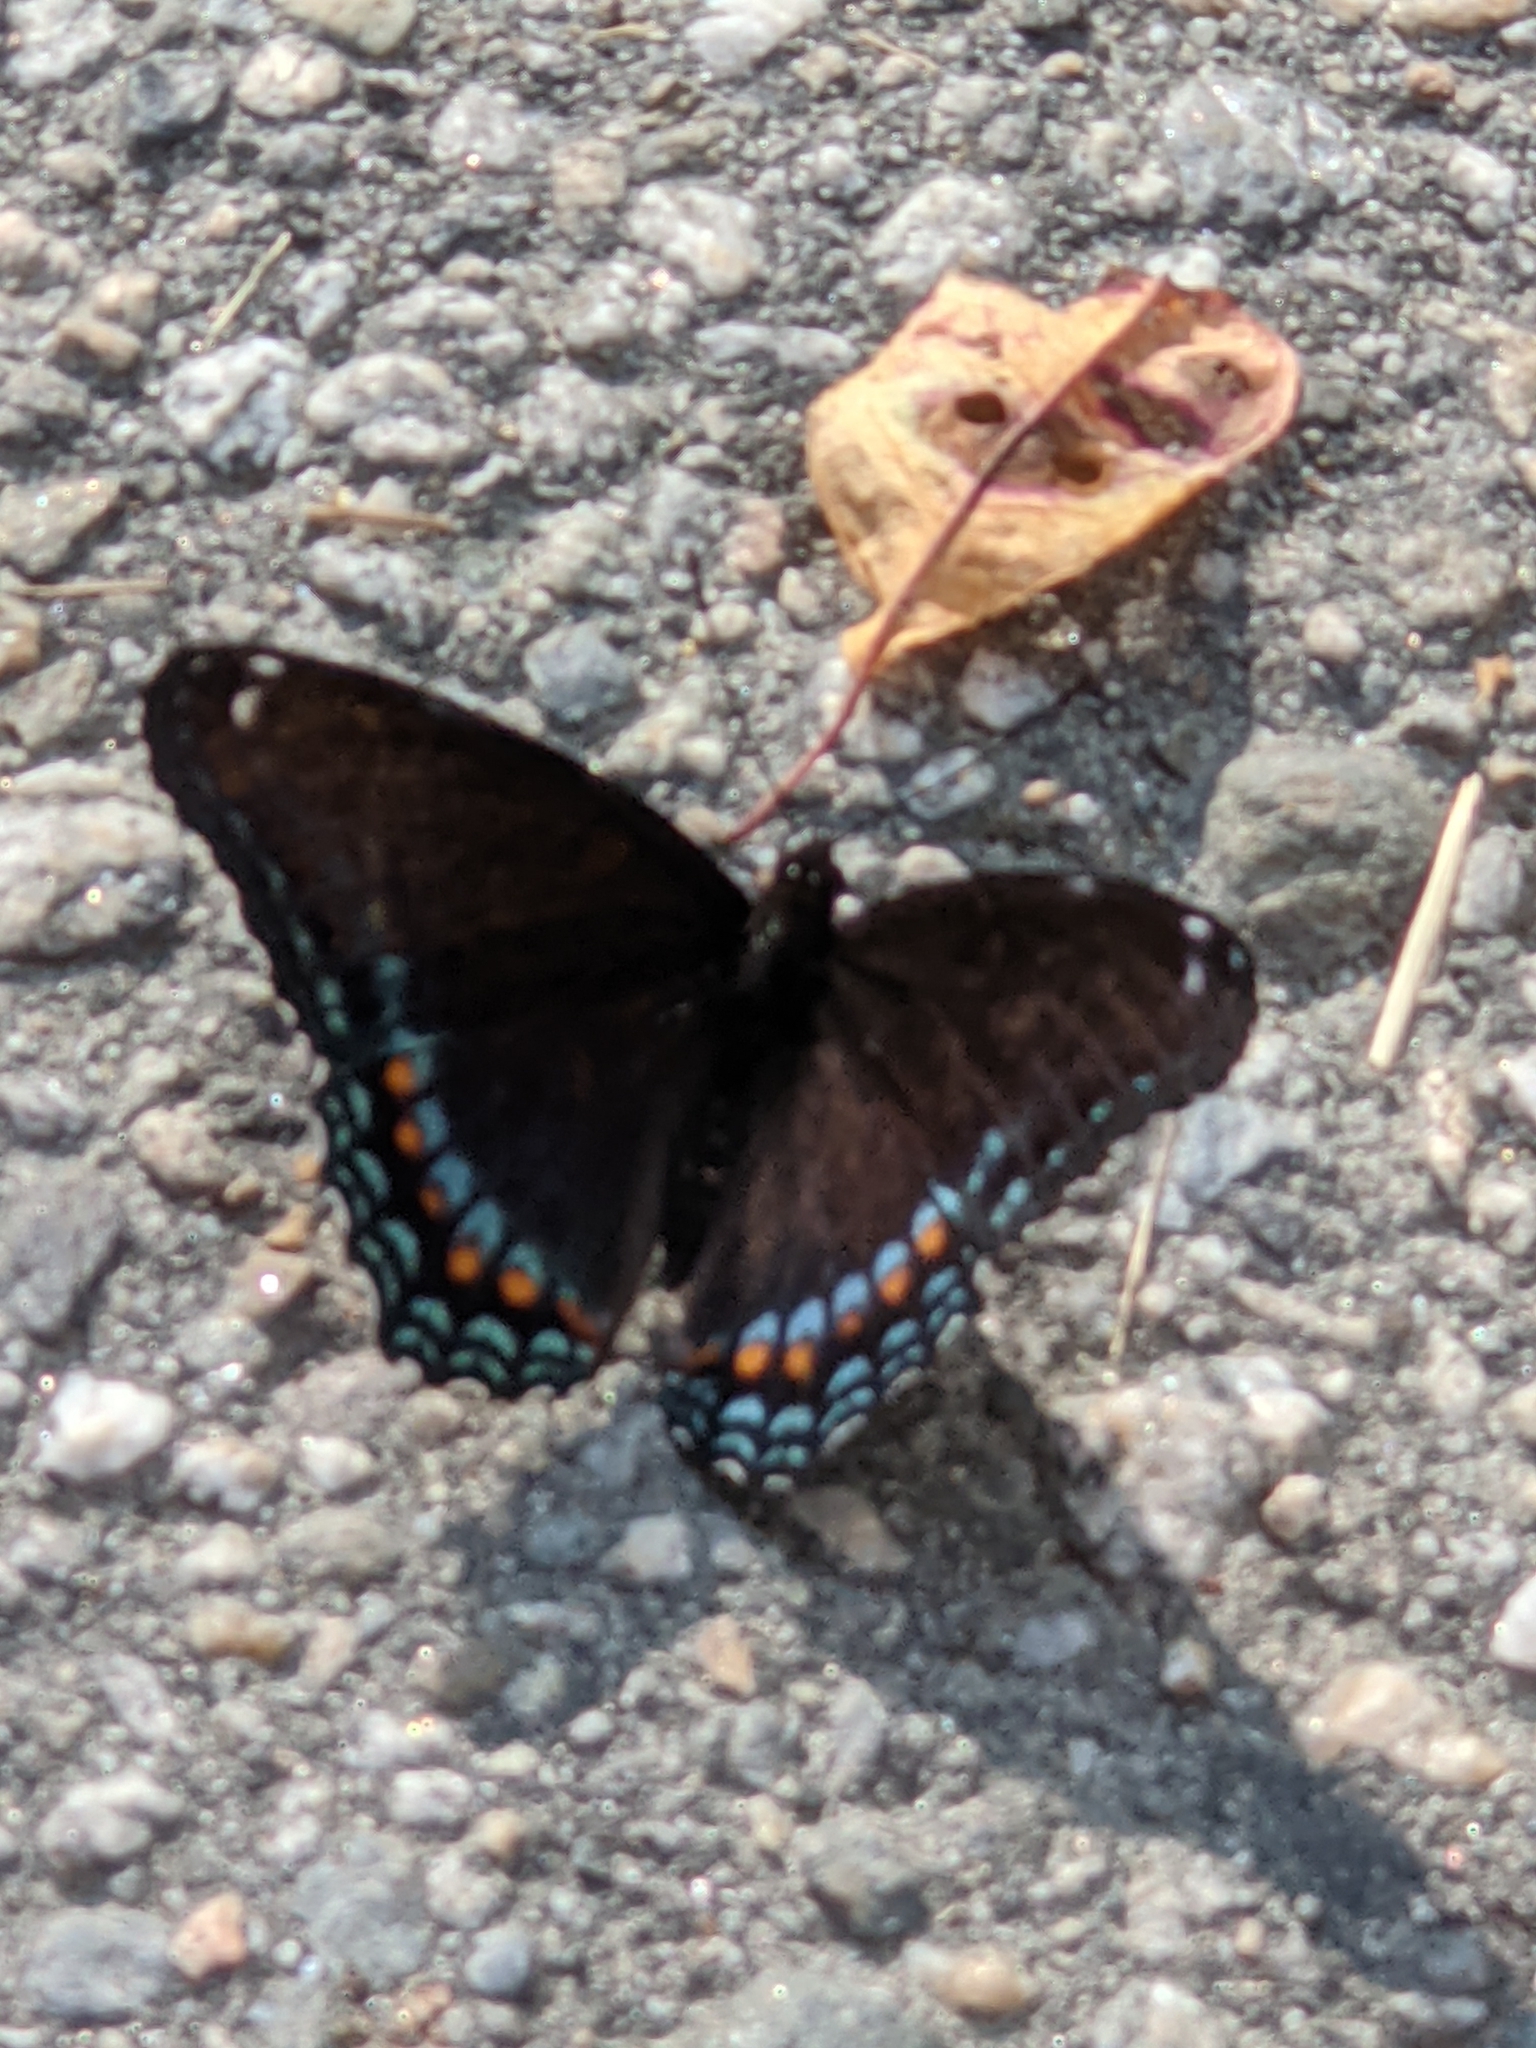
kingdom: Animalia
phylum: Arthropoda
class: Insecta
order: Lepidoptera
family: Nymphalidae
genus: Limenitis
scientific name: Limenitis astyanax
